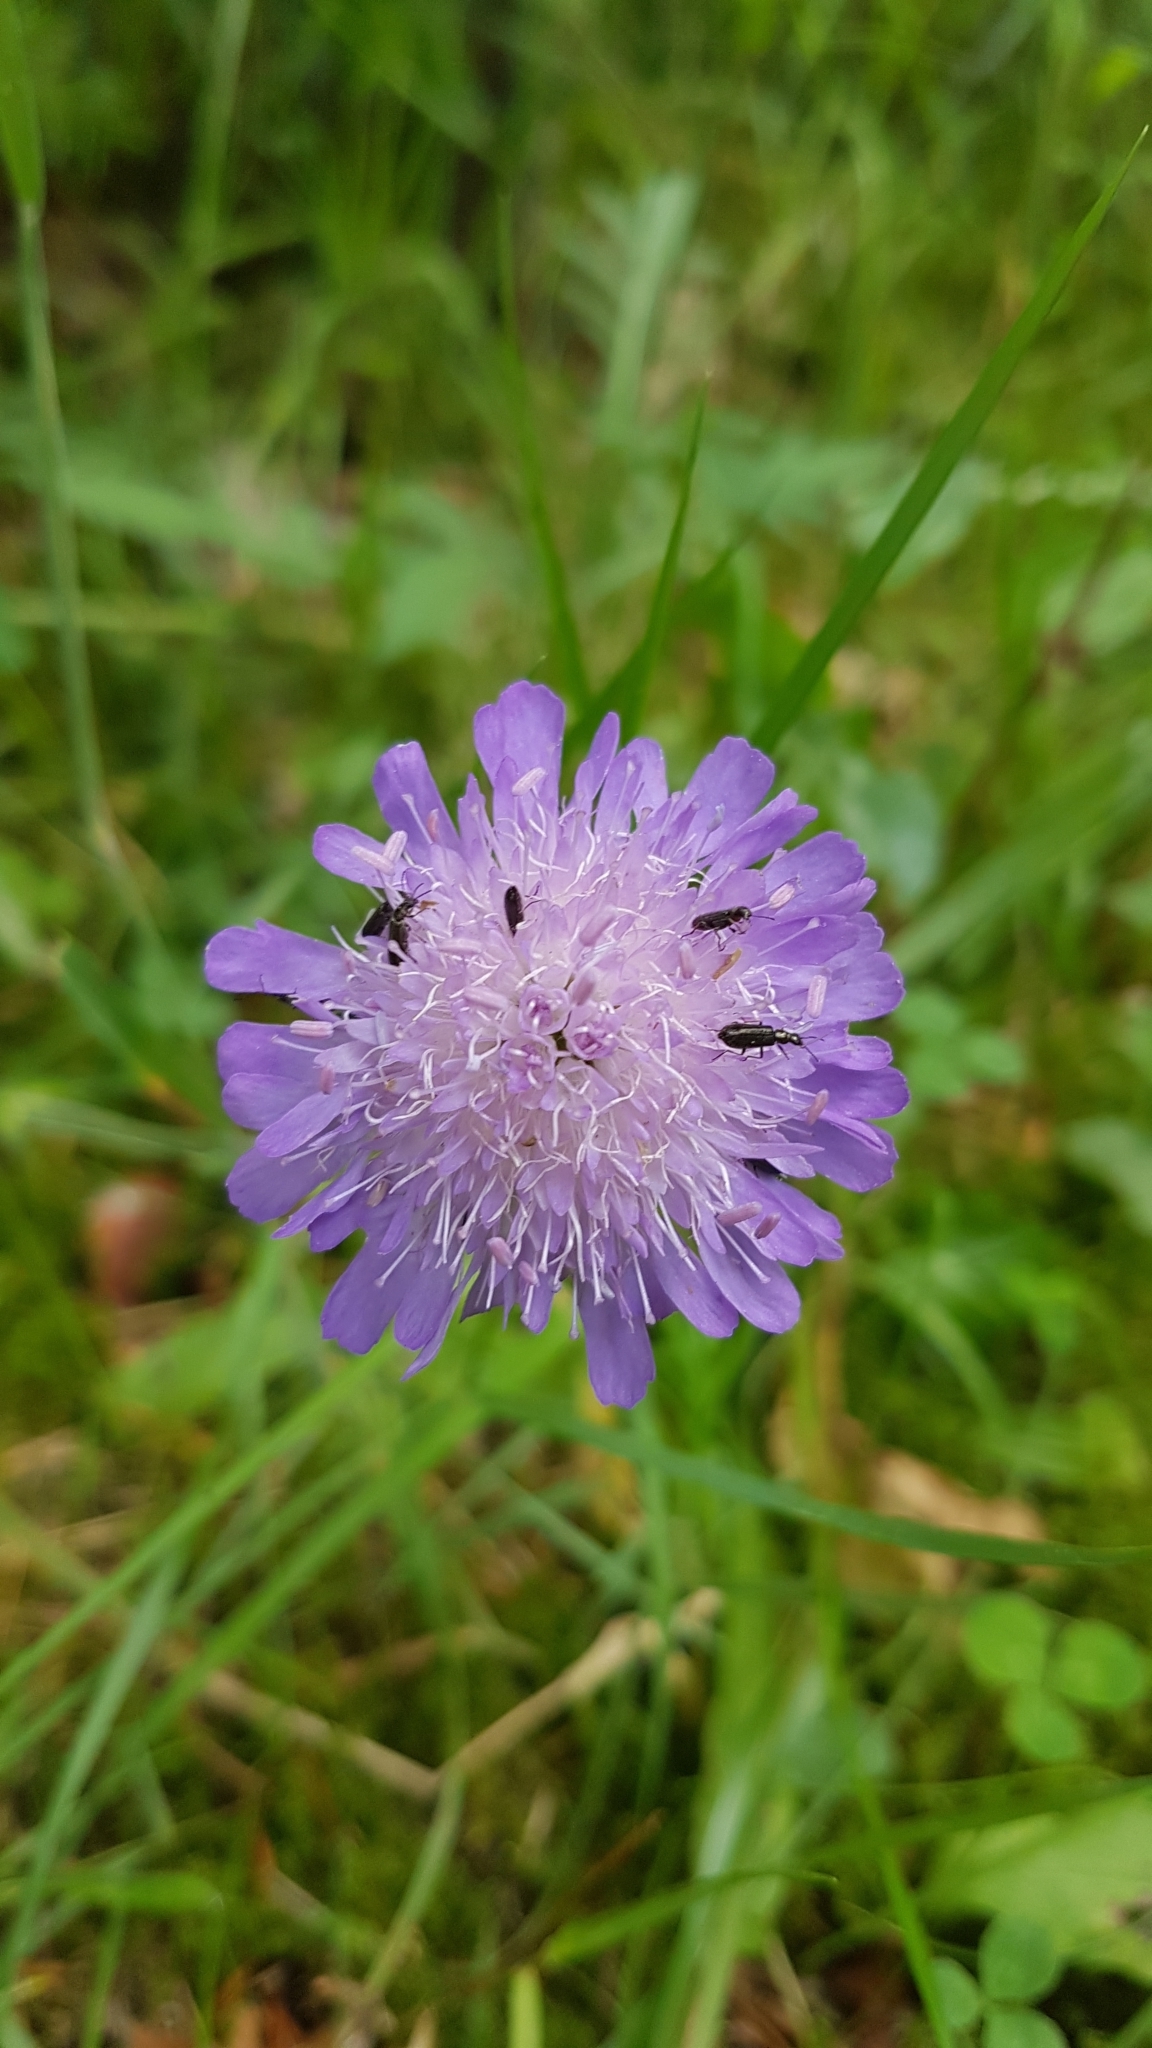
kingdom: Plantae
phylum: Tracheophyta
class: Magnoliopsida
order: Dipsacales
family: Caprifoliaceae
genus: Knautia
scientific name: Knautia arvensis
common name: Field scabiosa
